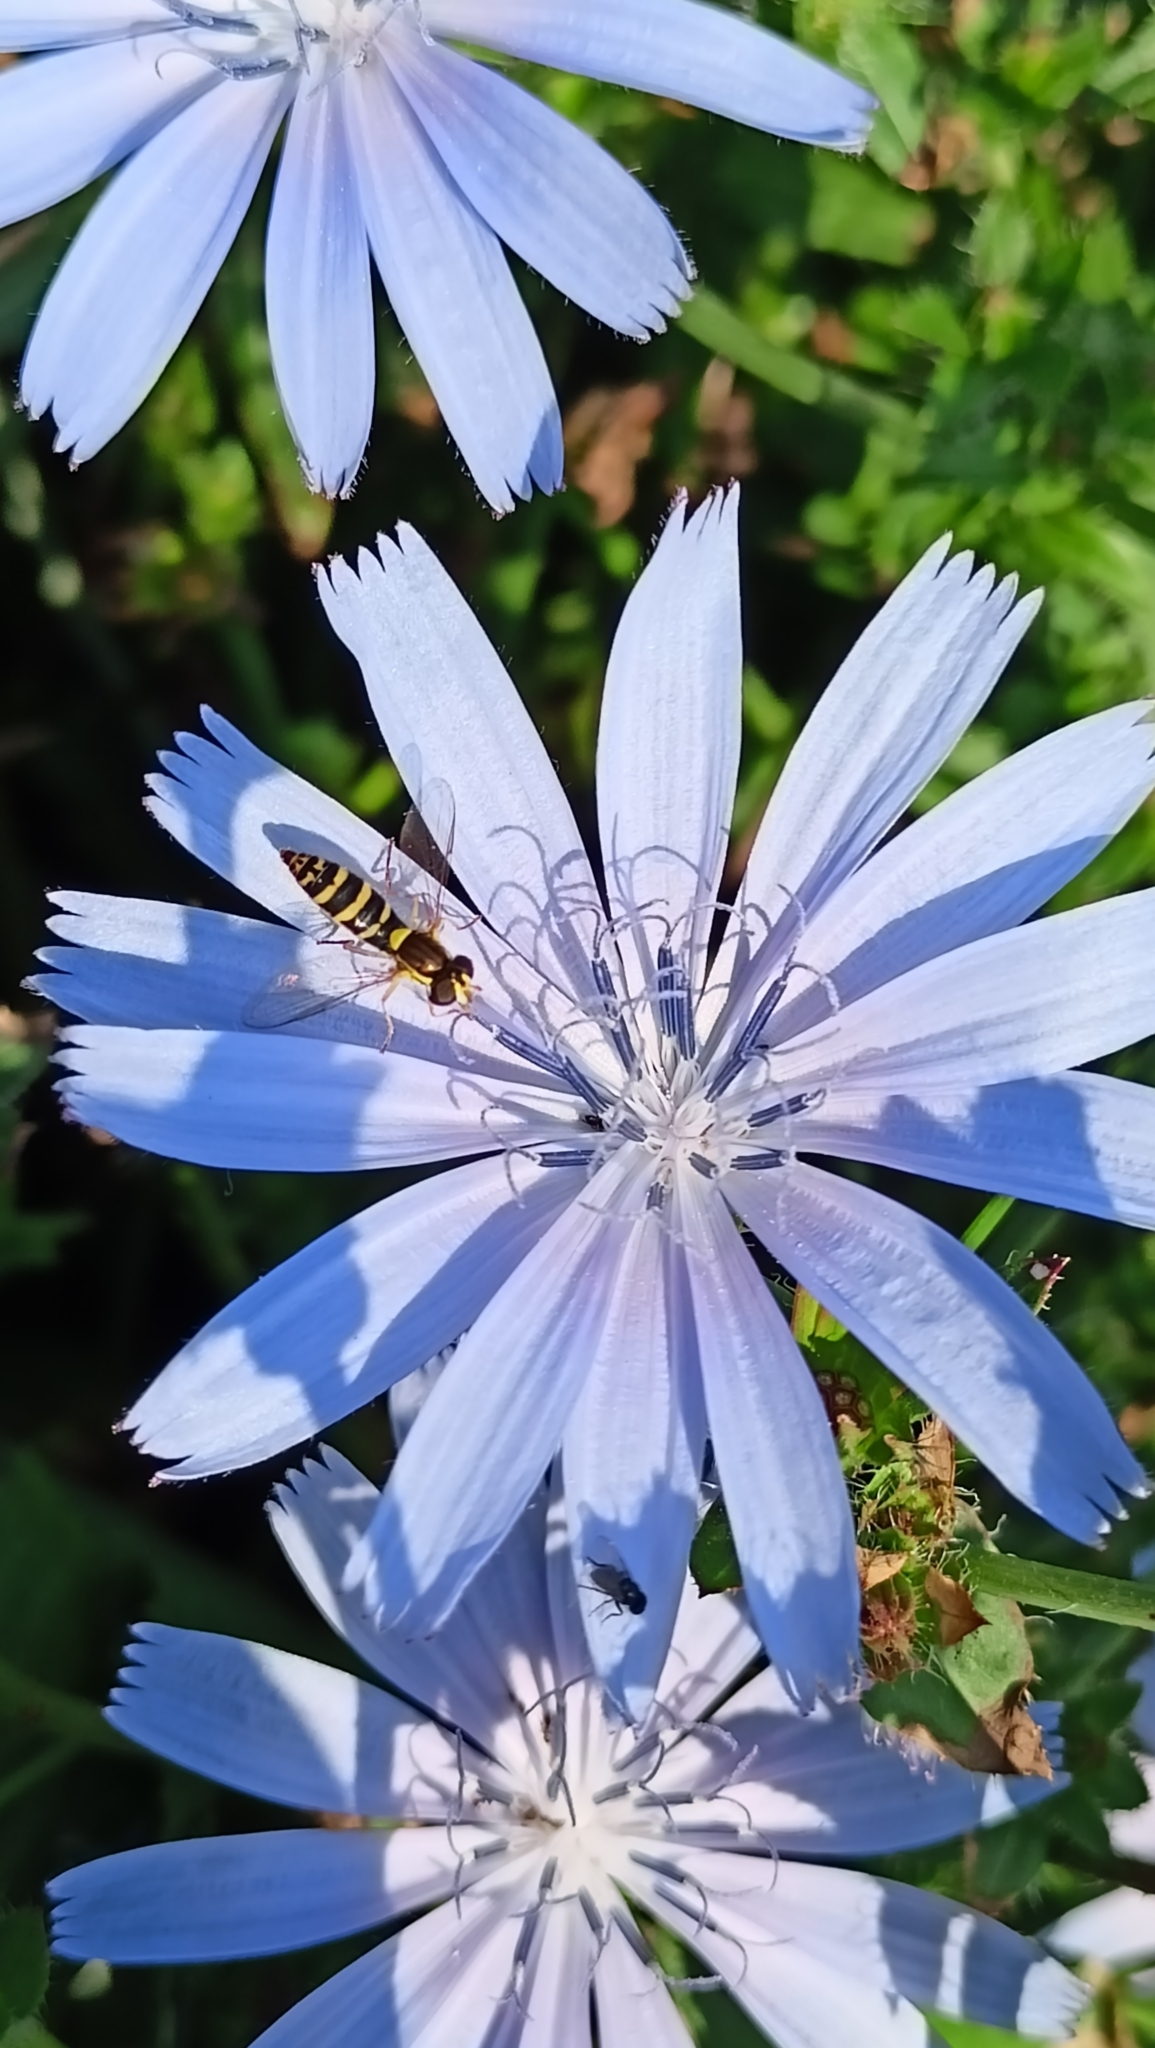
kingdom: Animalia
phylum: Arthropoda
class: Insecta
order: Diptera
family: Syrphidae
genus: Sphaerophoria
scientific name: Sphaerophoria
